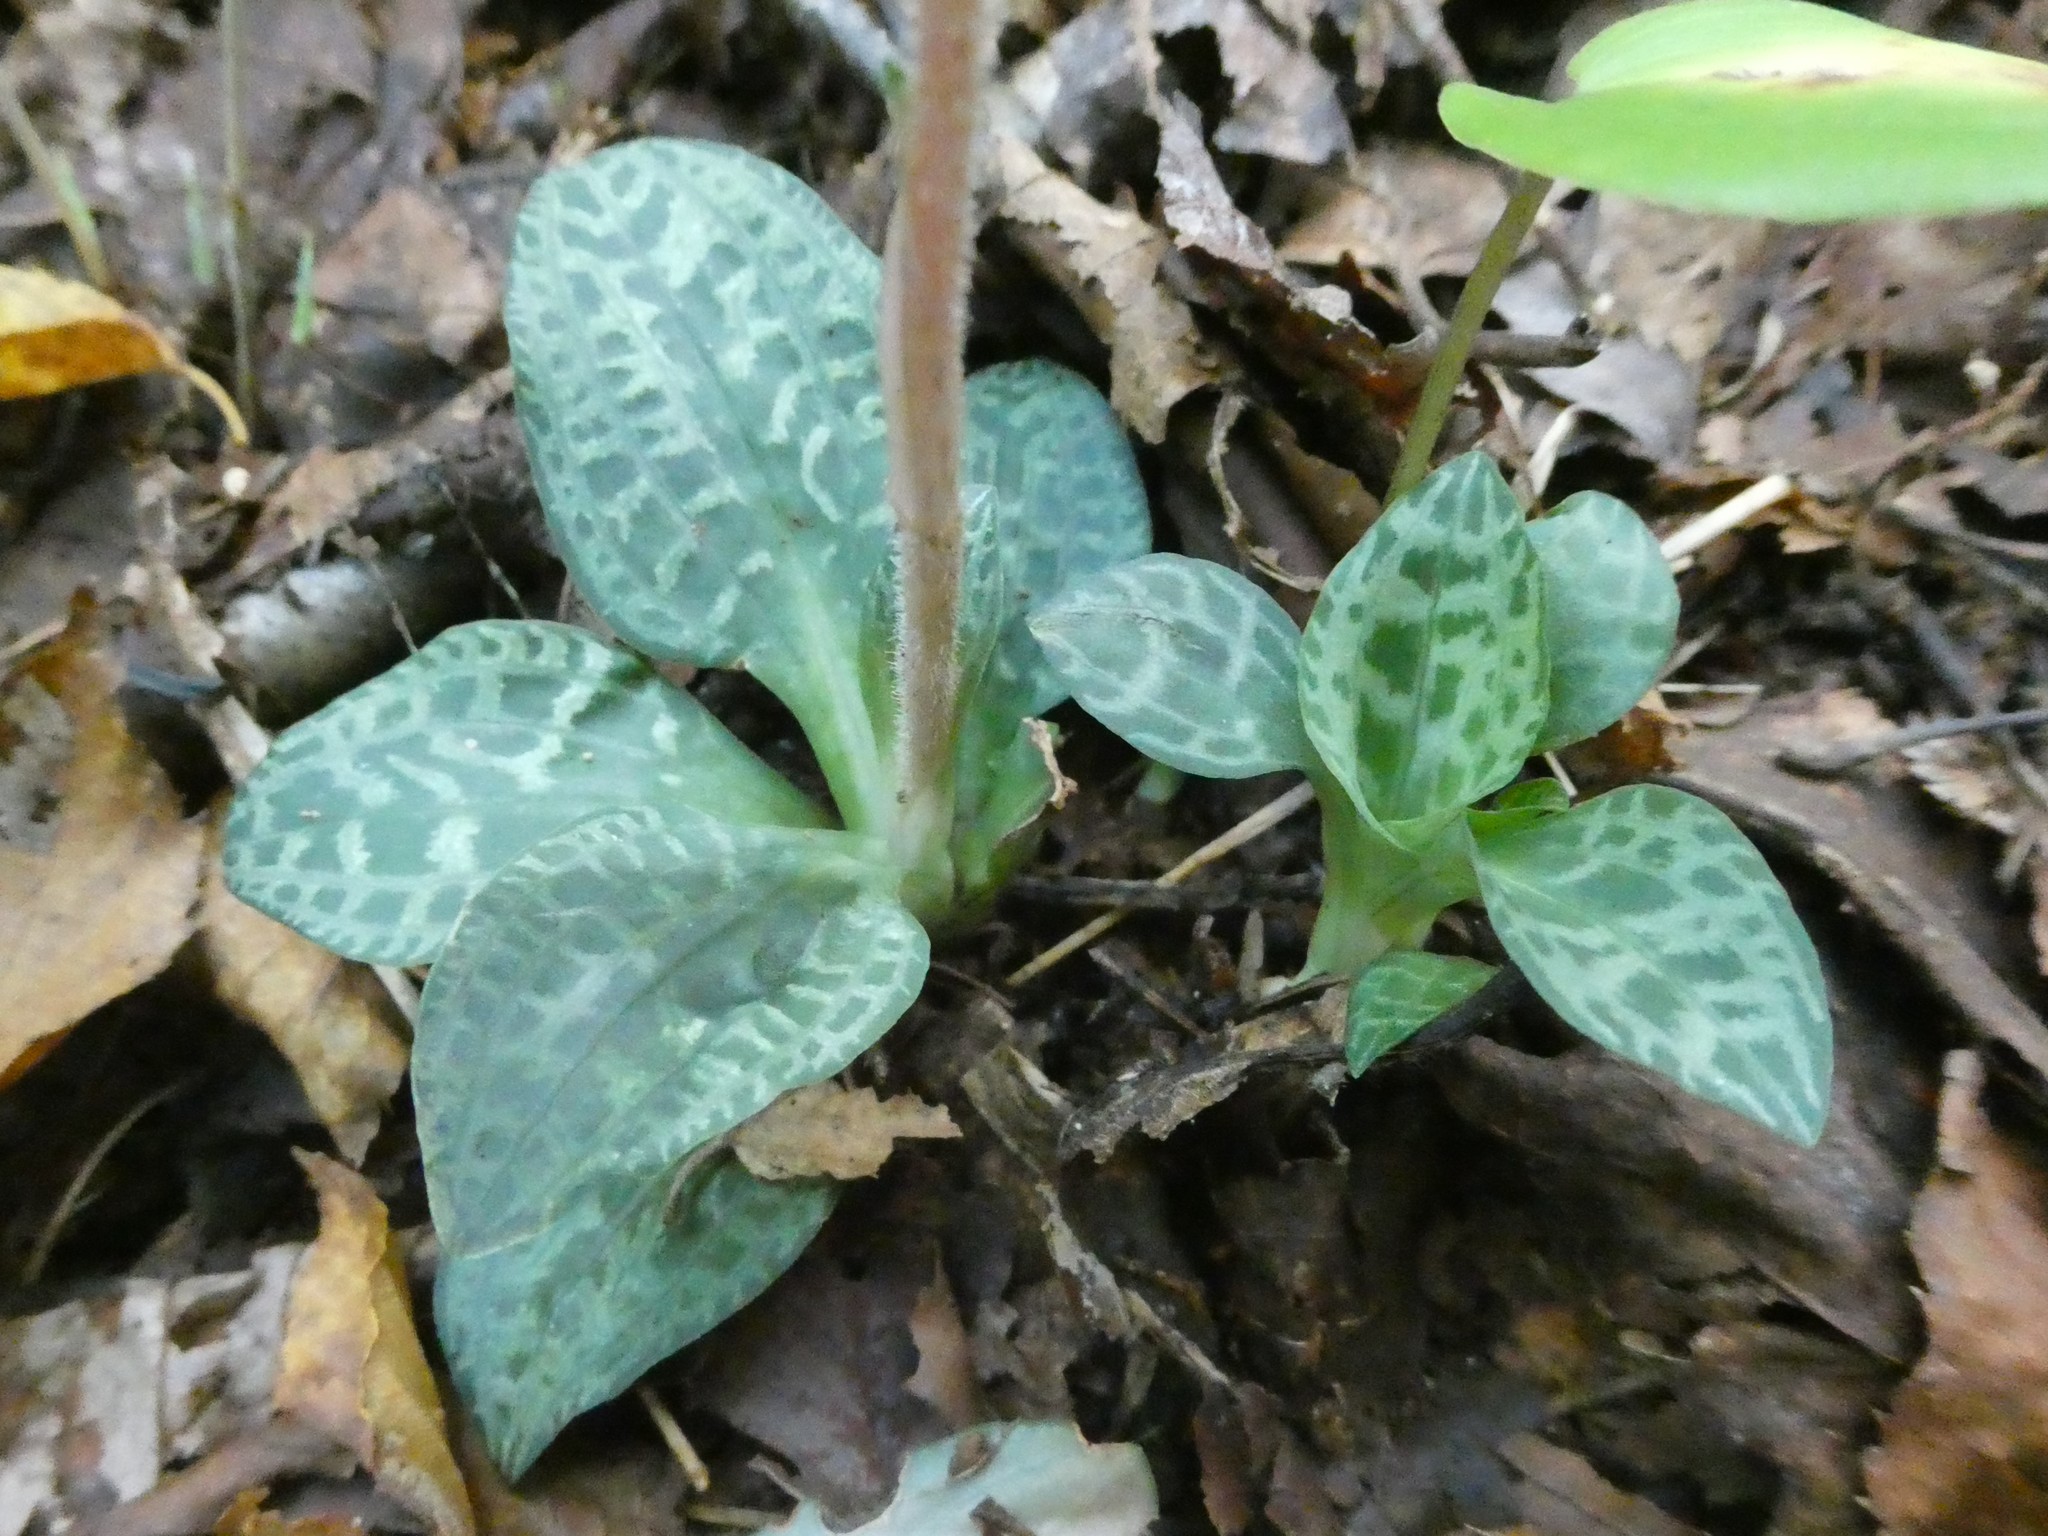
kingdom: Plantae
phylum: Tracheophyta
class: Liliopsida
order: Asparagales
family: Orchidaceae
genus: Goodyera
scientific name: Goodyera tesselata
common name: Checkered rattlesnake-plantain
